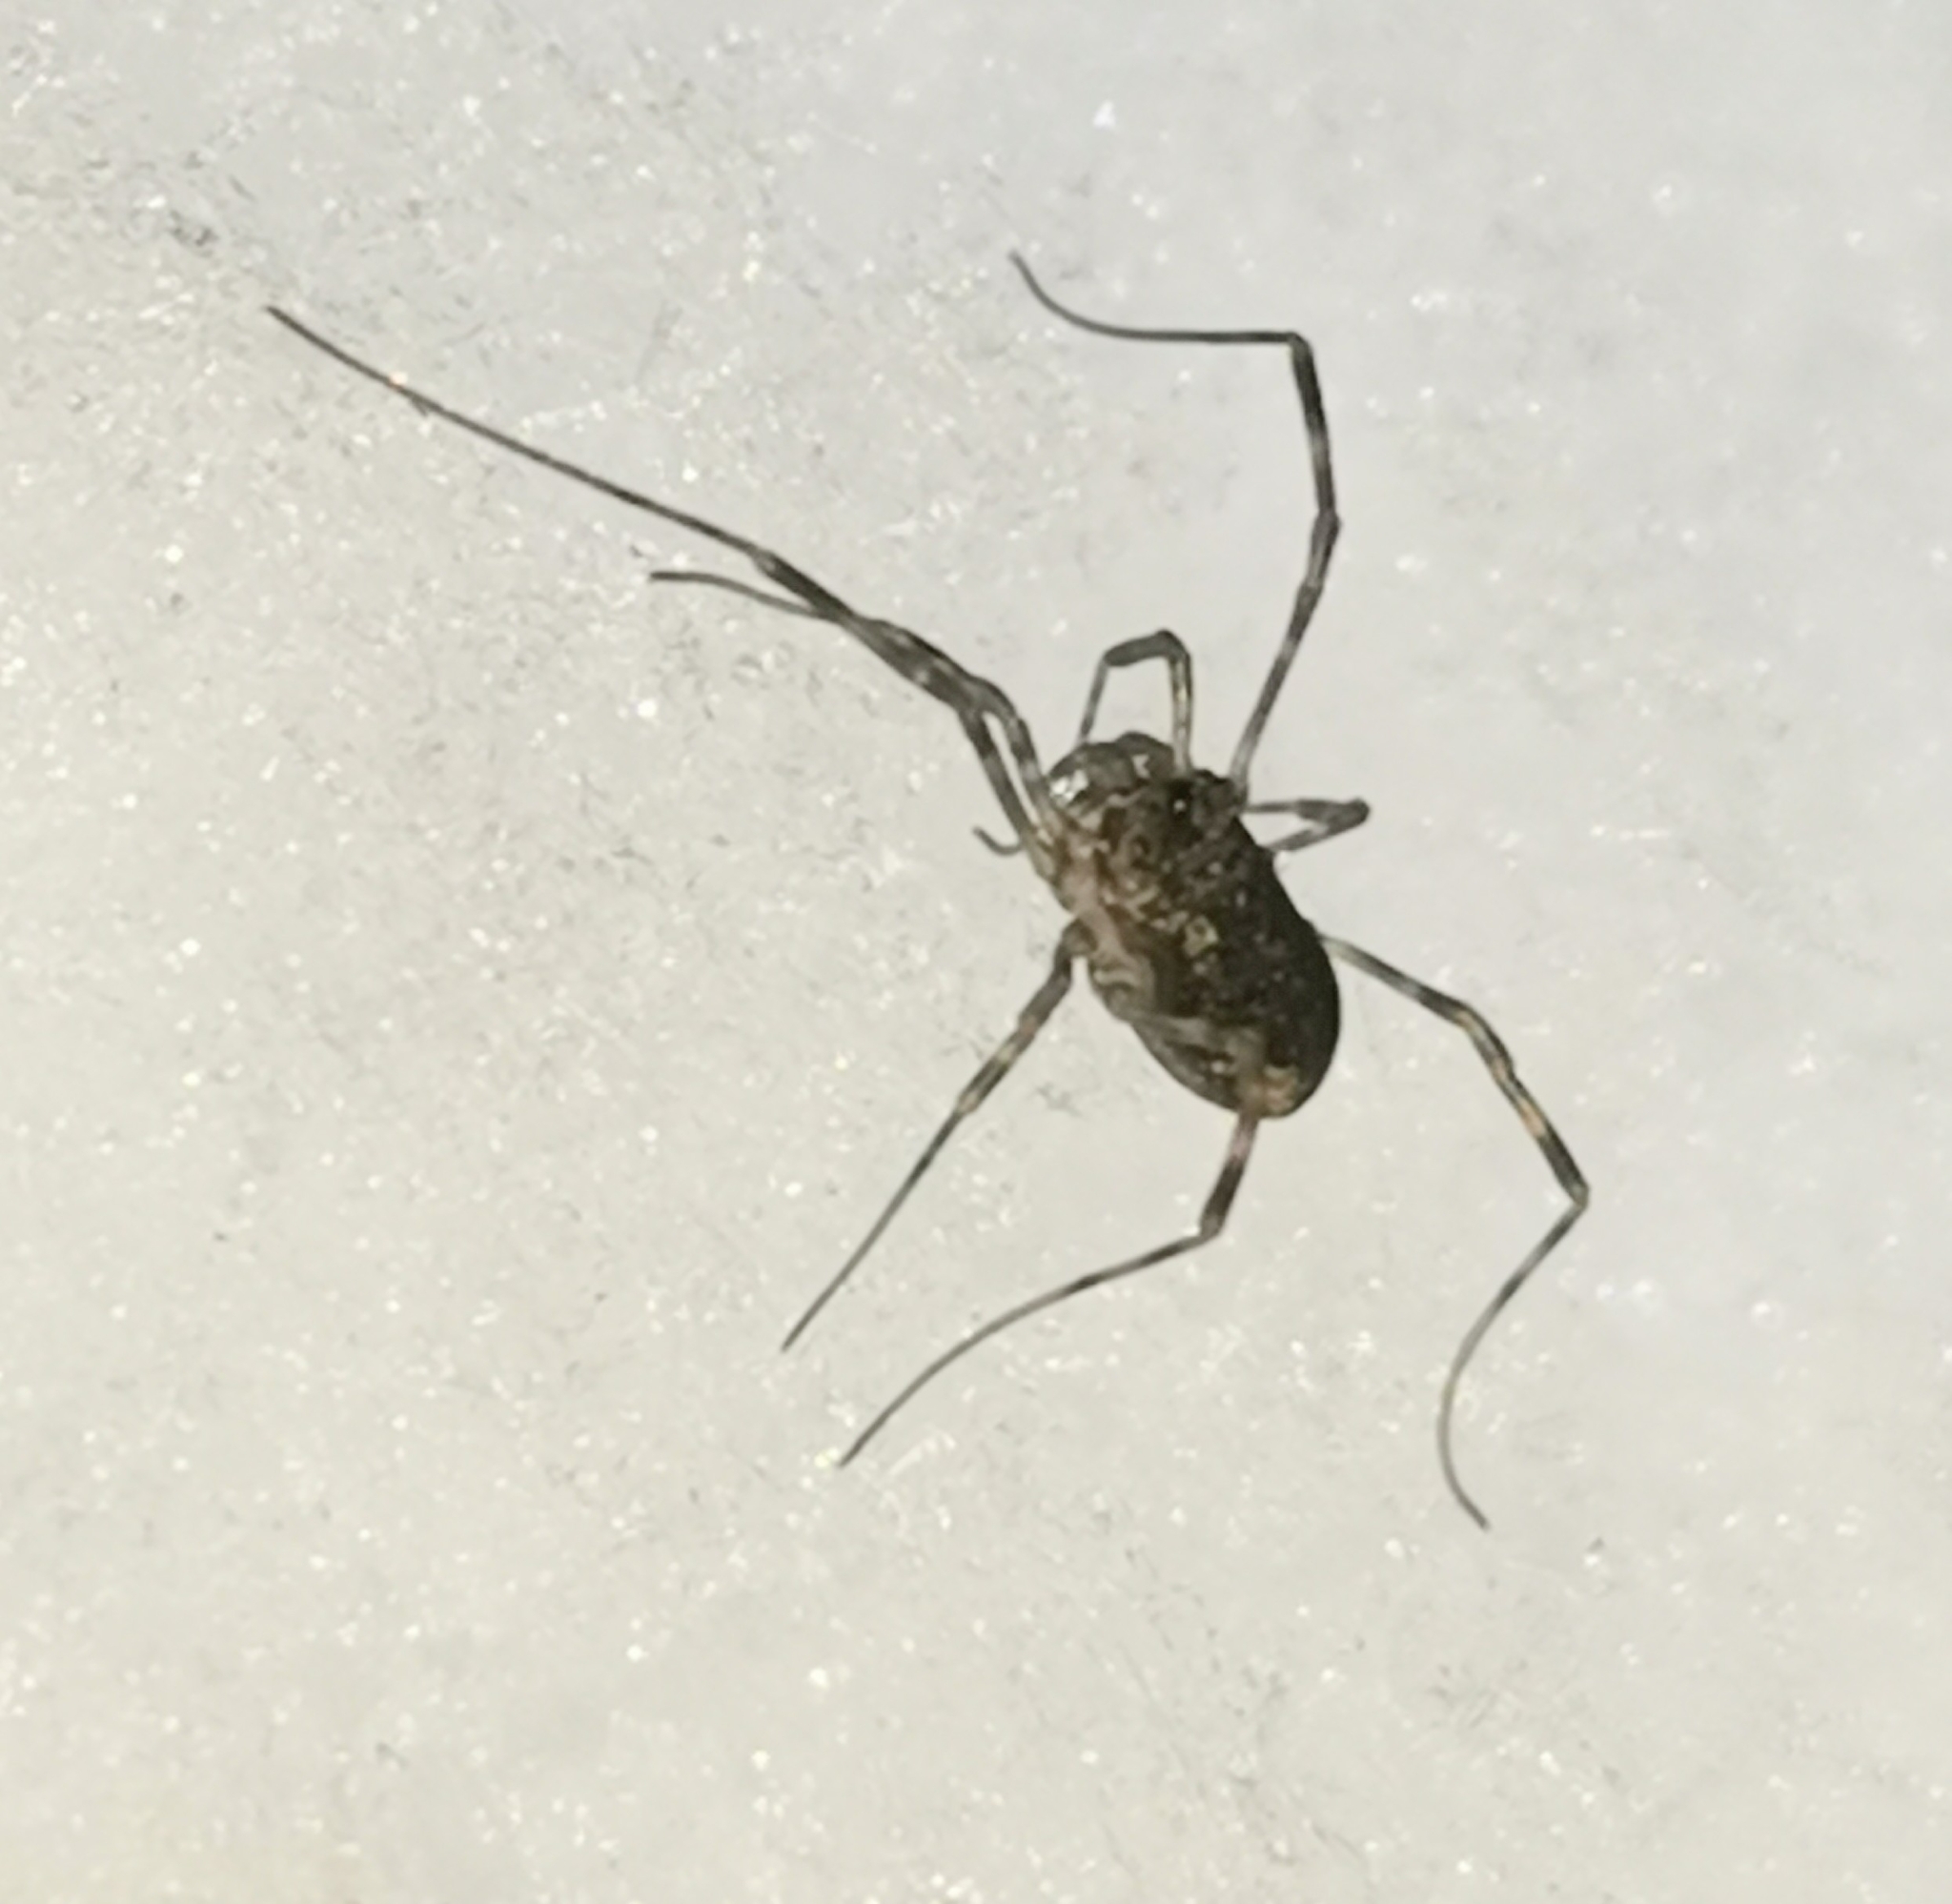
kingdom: Animalia
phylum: Arthropoda
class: Arachnida
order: Opiliones
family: Phalangiidae
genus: Rilaena
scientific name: Rilaena triangularis
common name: Spring harvestman
